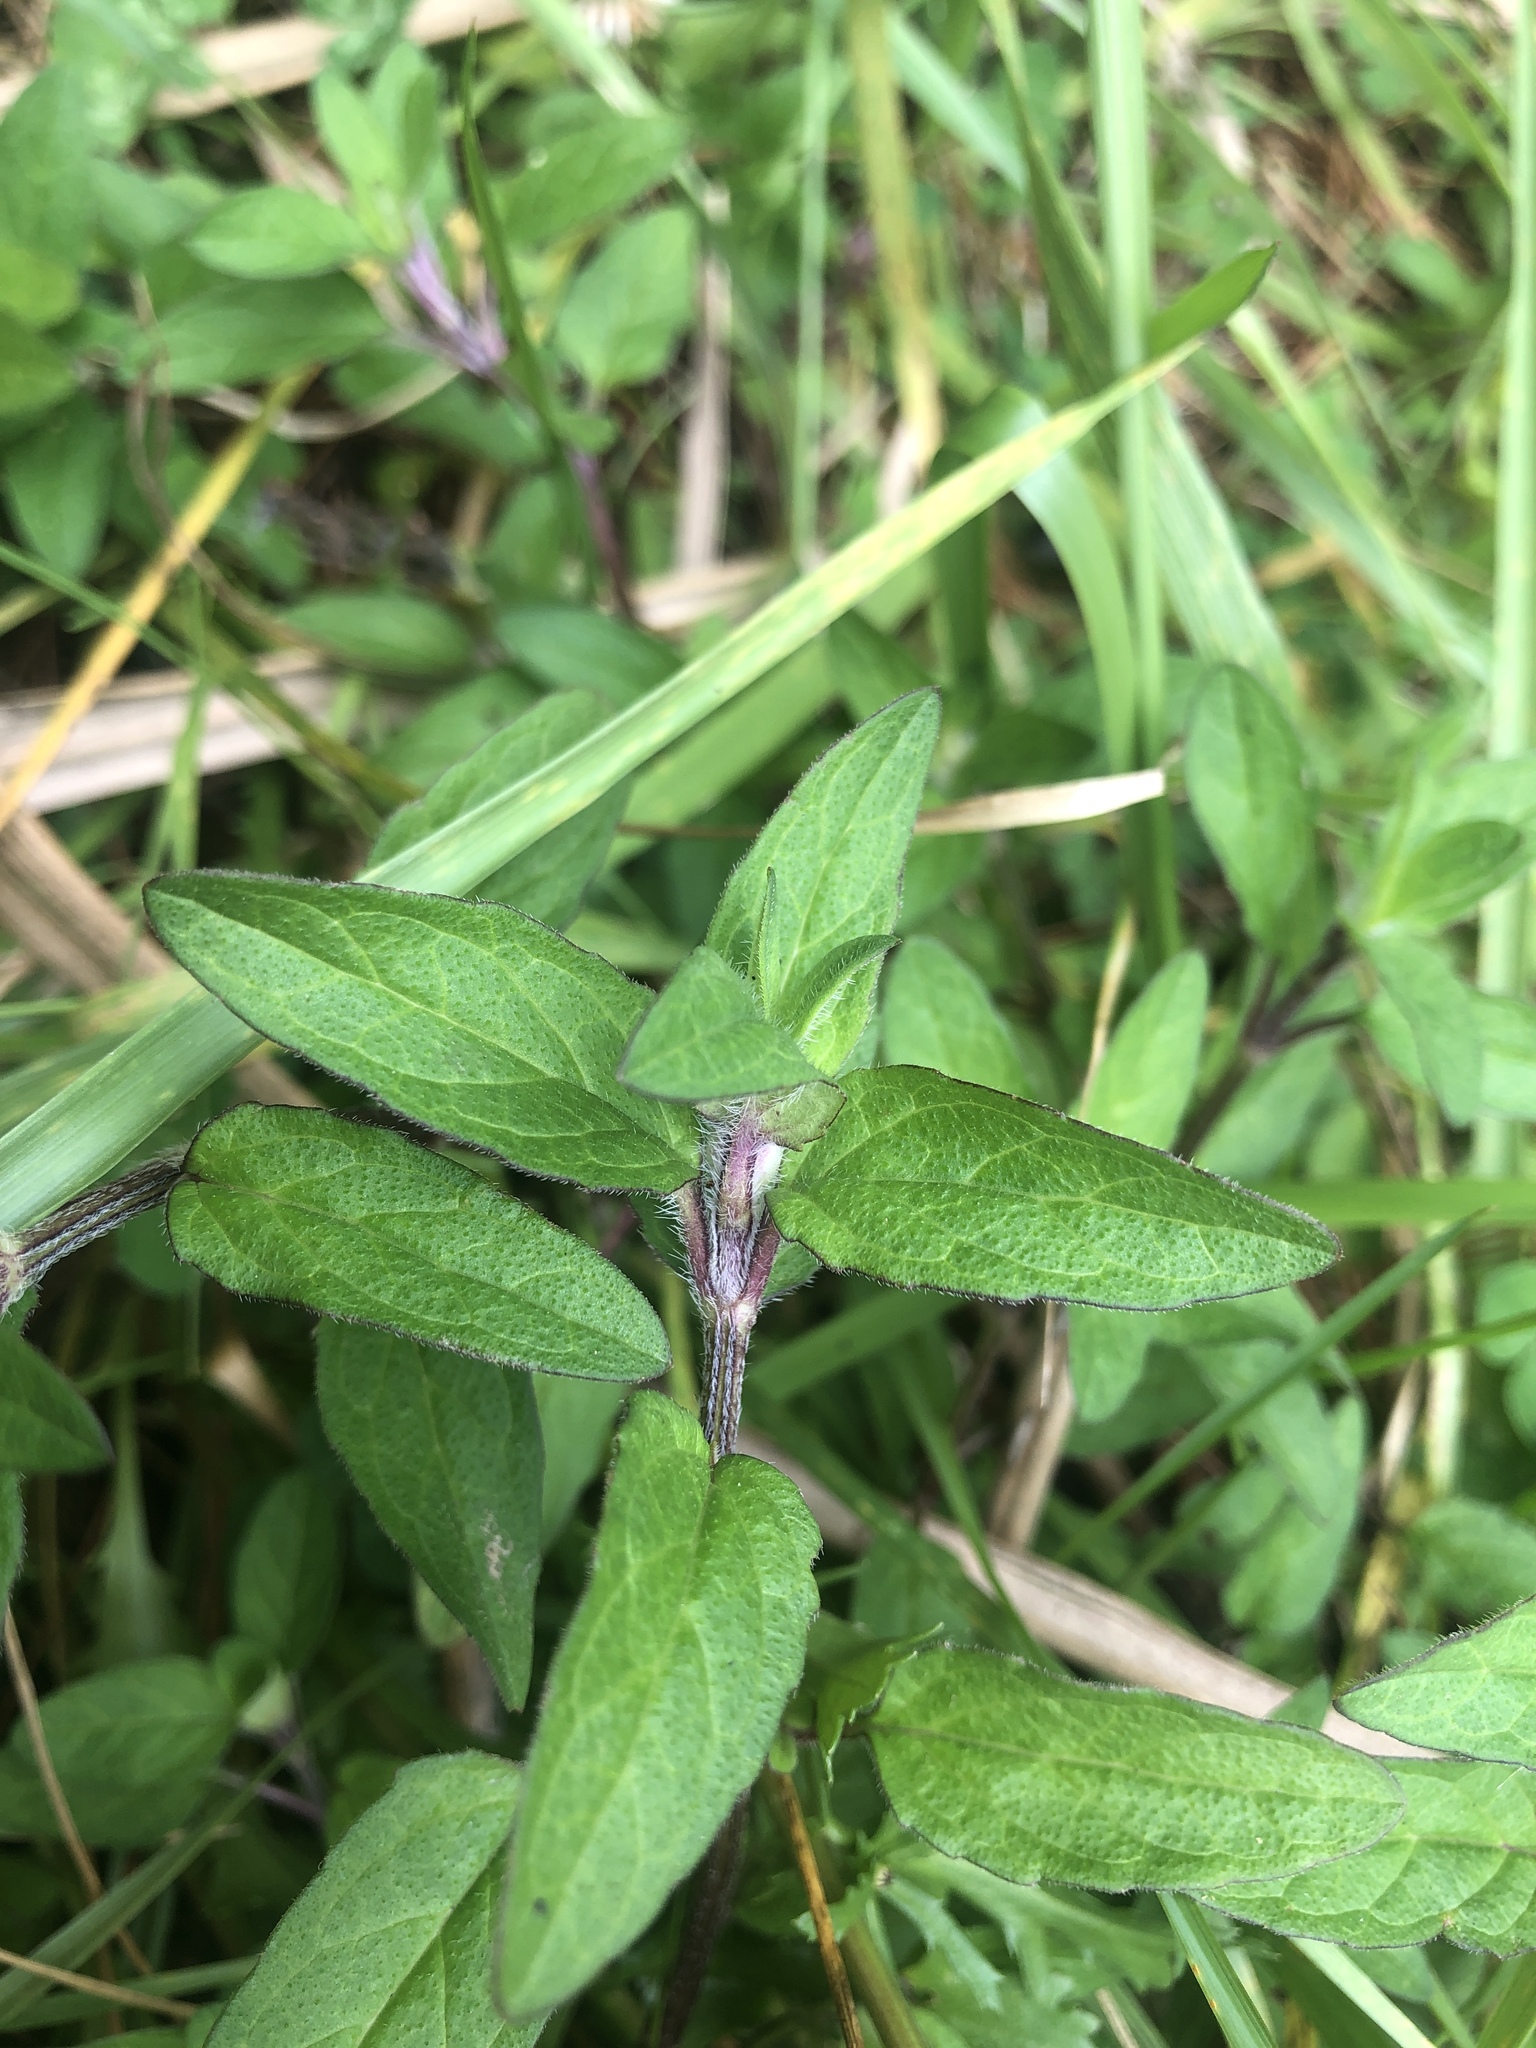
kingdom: Plantae
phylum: Tracheophyta
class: Magnoliopsida
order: Lamiales
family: Lamiaceae
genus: Prunella
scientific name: Prunella vulgaris
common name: Heal-all
